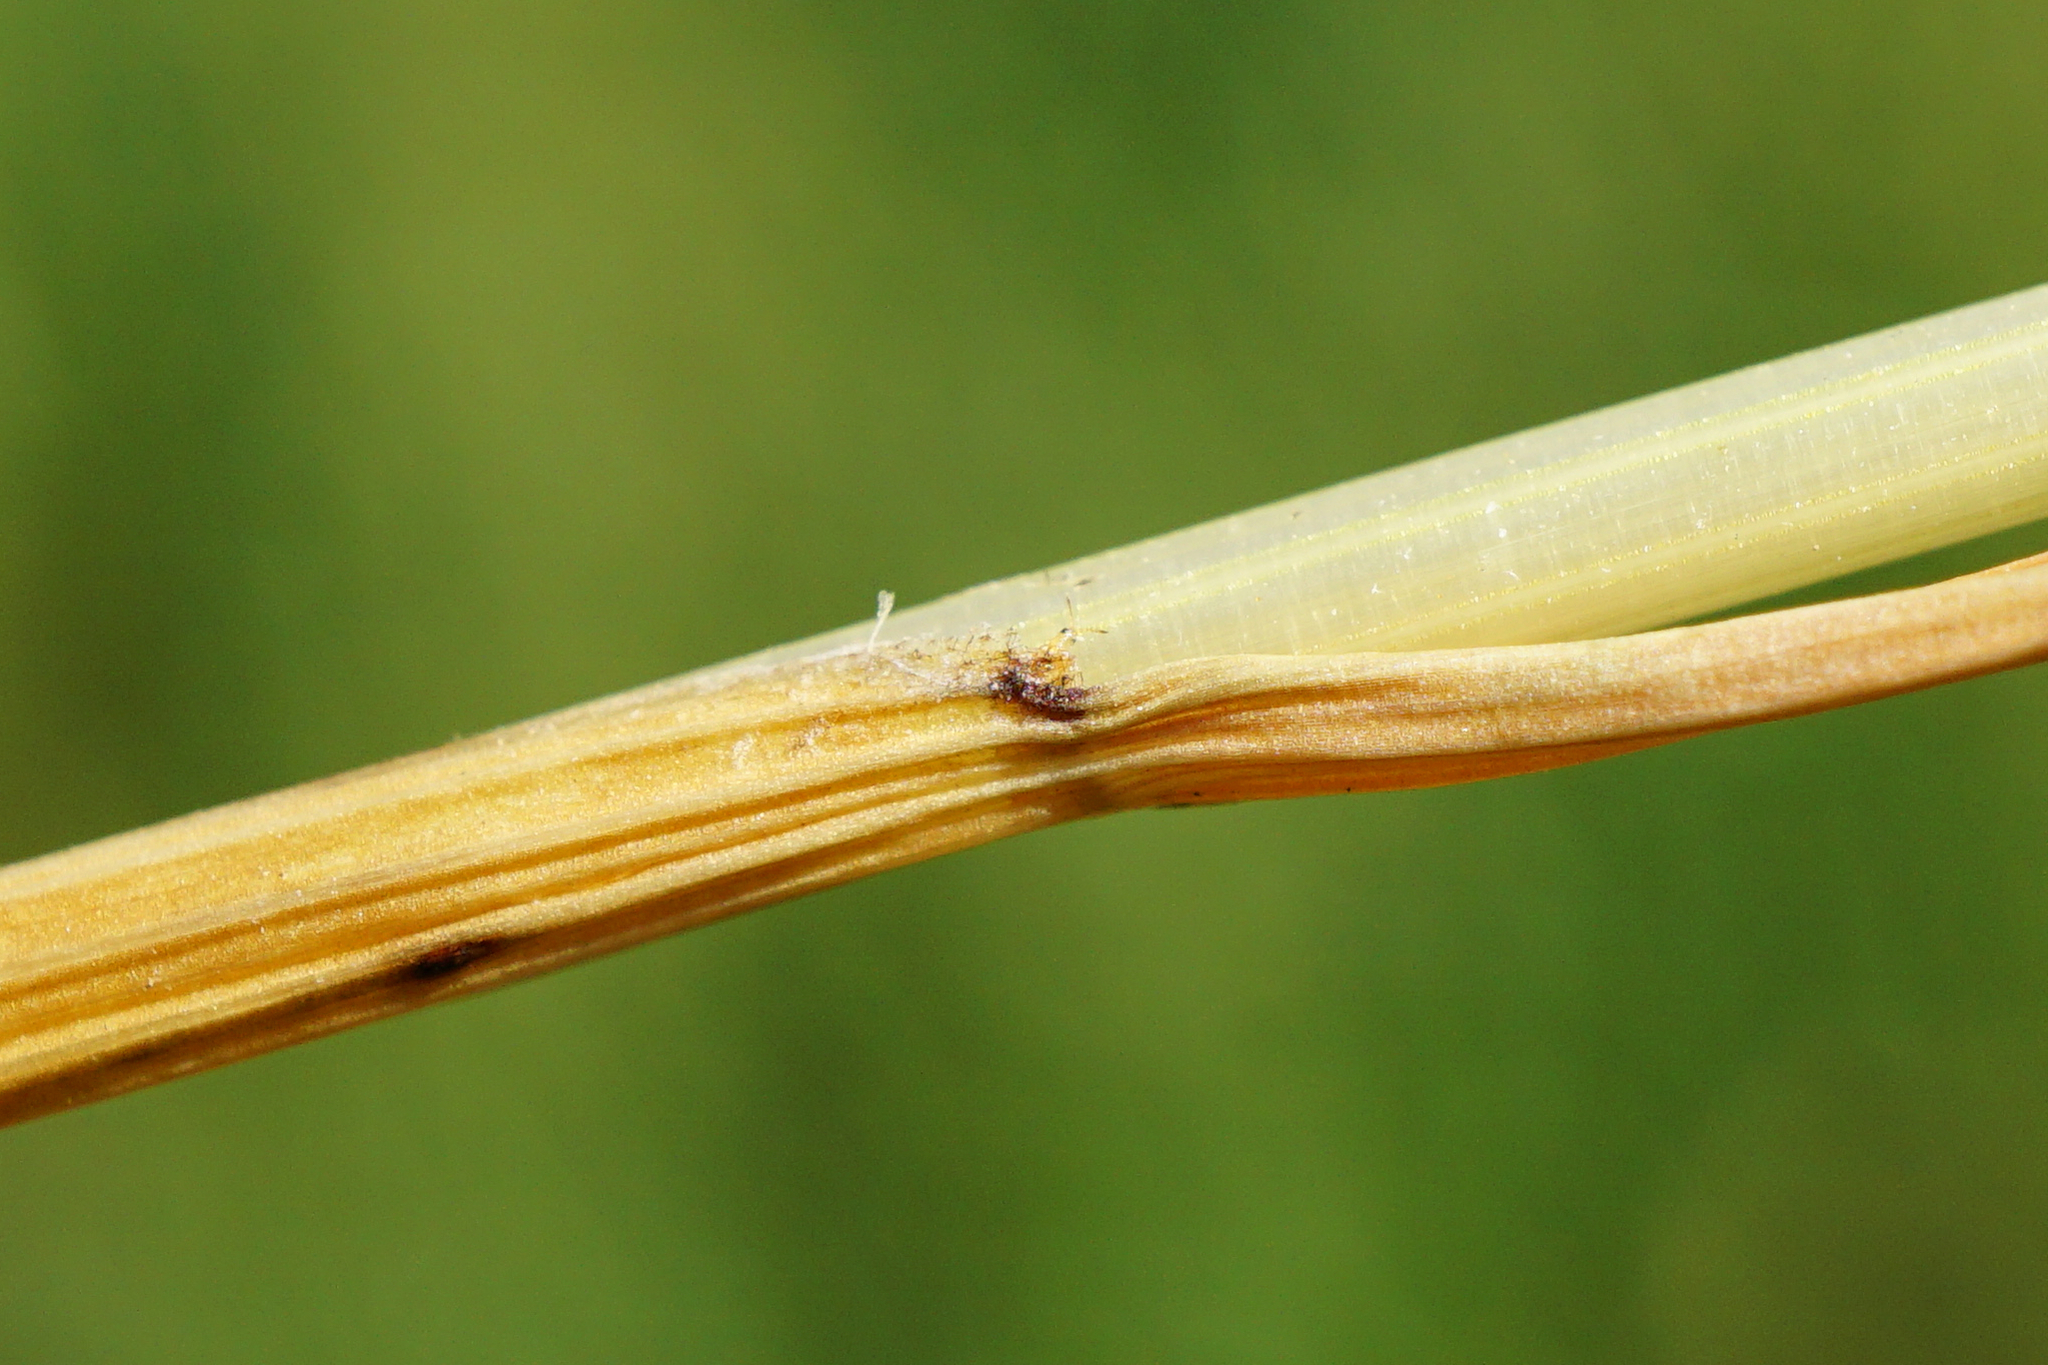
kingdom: Plantae
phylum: Tracheophyta
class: Liliopsida
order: Poales
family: Poaceae
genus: Lolium
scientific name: Lolium arundinaceum
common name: Reed fescue
